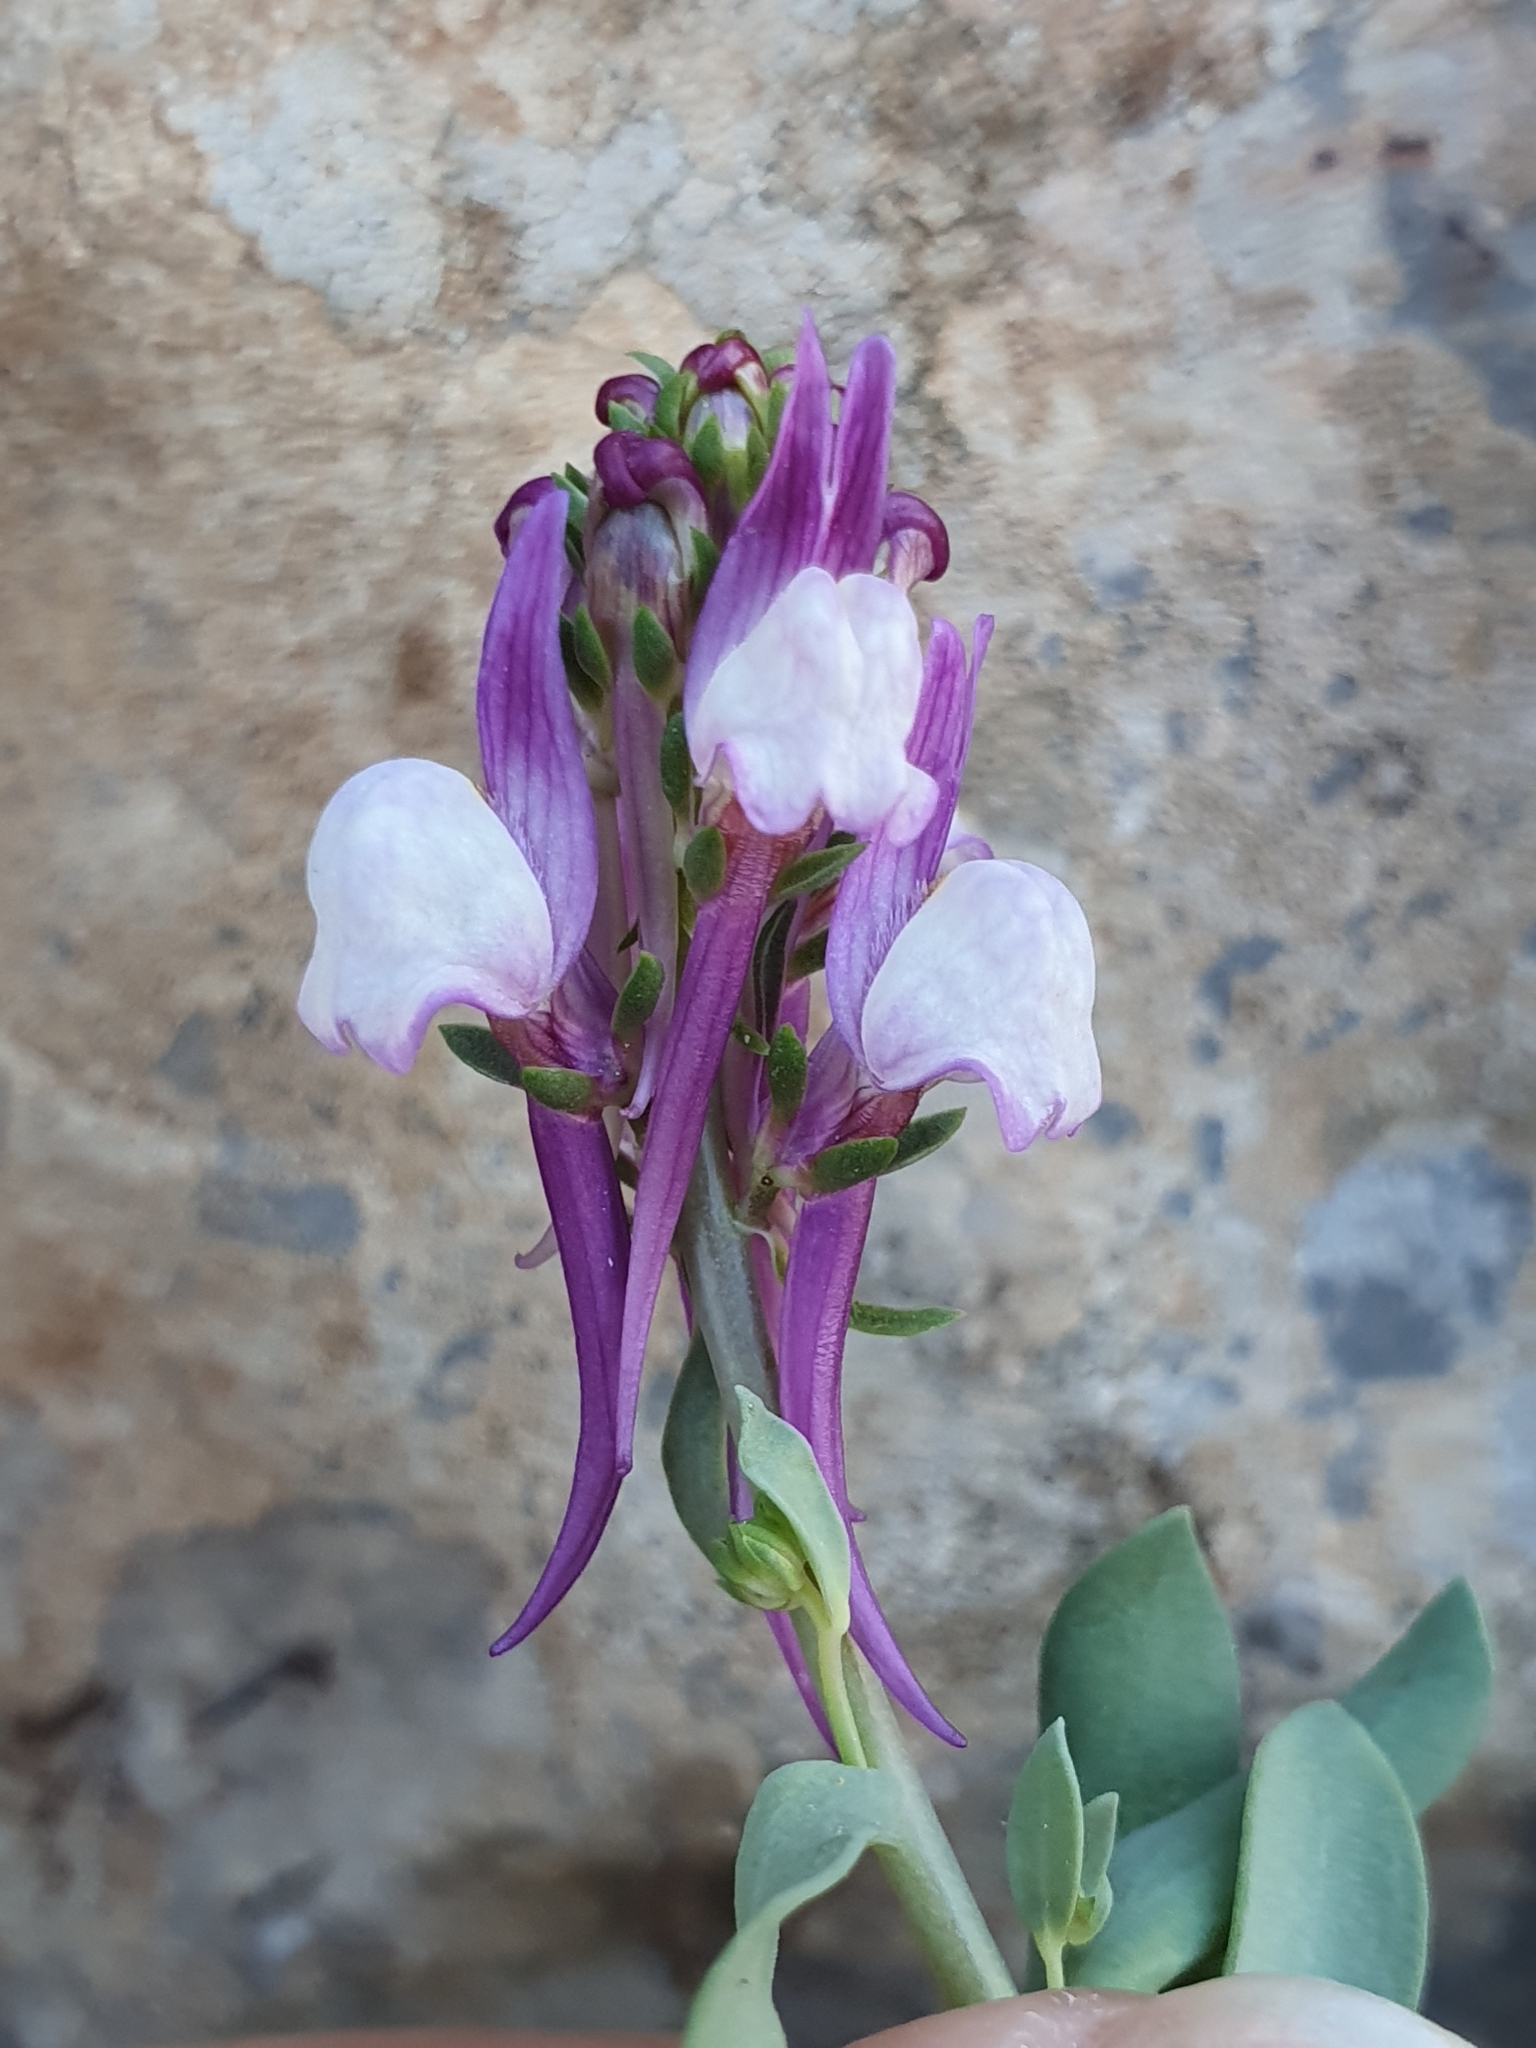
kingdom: Plantae
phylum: Tracheophyta
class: Magnoliopsida
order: Lamiales
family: Plantaginaceae
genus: Linaria
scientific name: Linaria virgata
